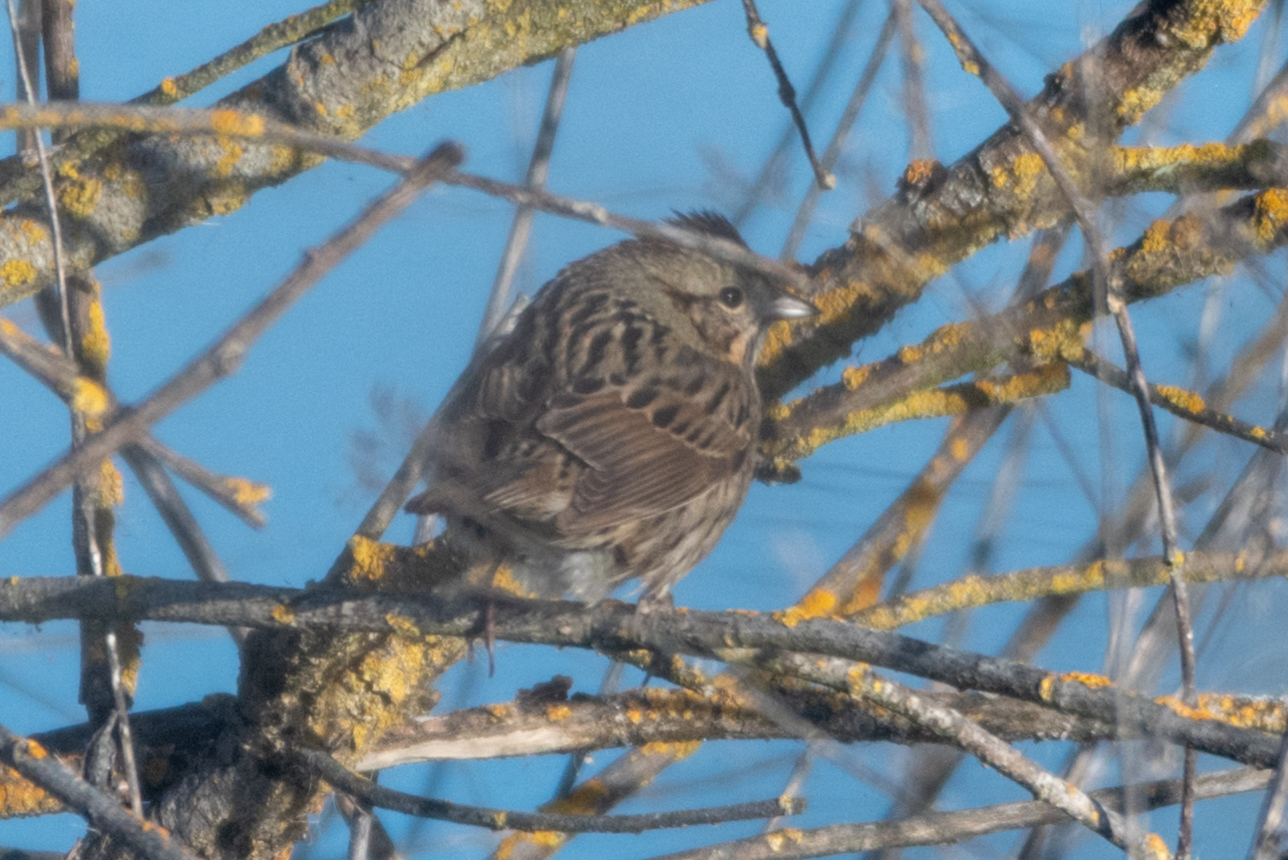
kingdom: Animalia
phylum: Chordata
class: Aves
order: Passeriformes
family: Passerellidae
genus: Melospiza
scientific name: Melospiza lincolnii
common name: Lincoln's sparrow
